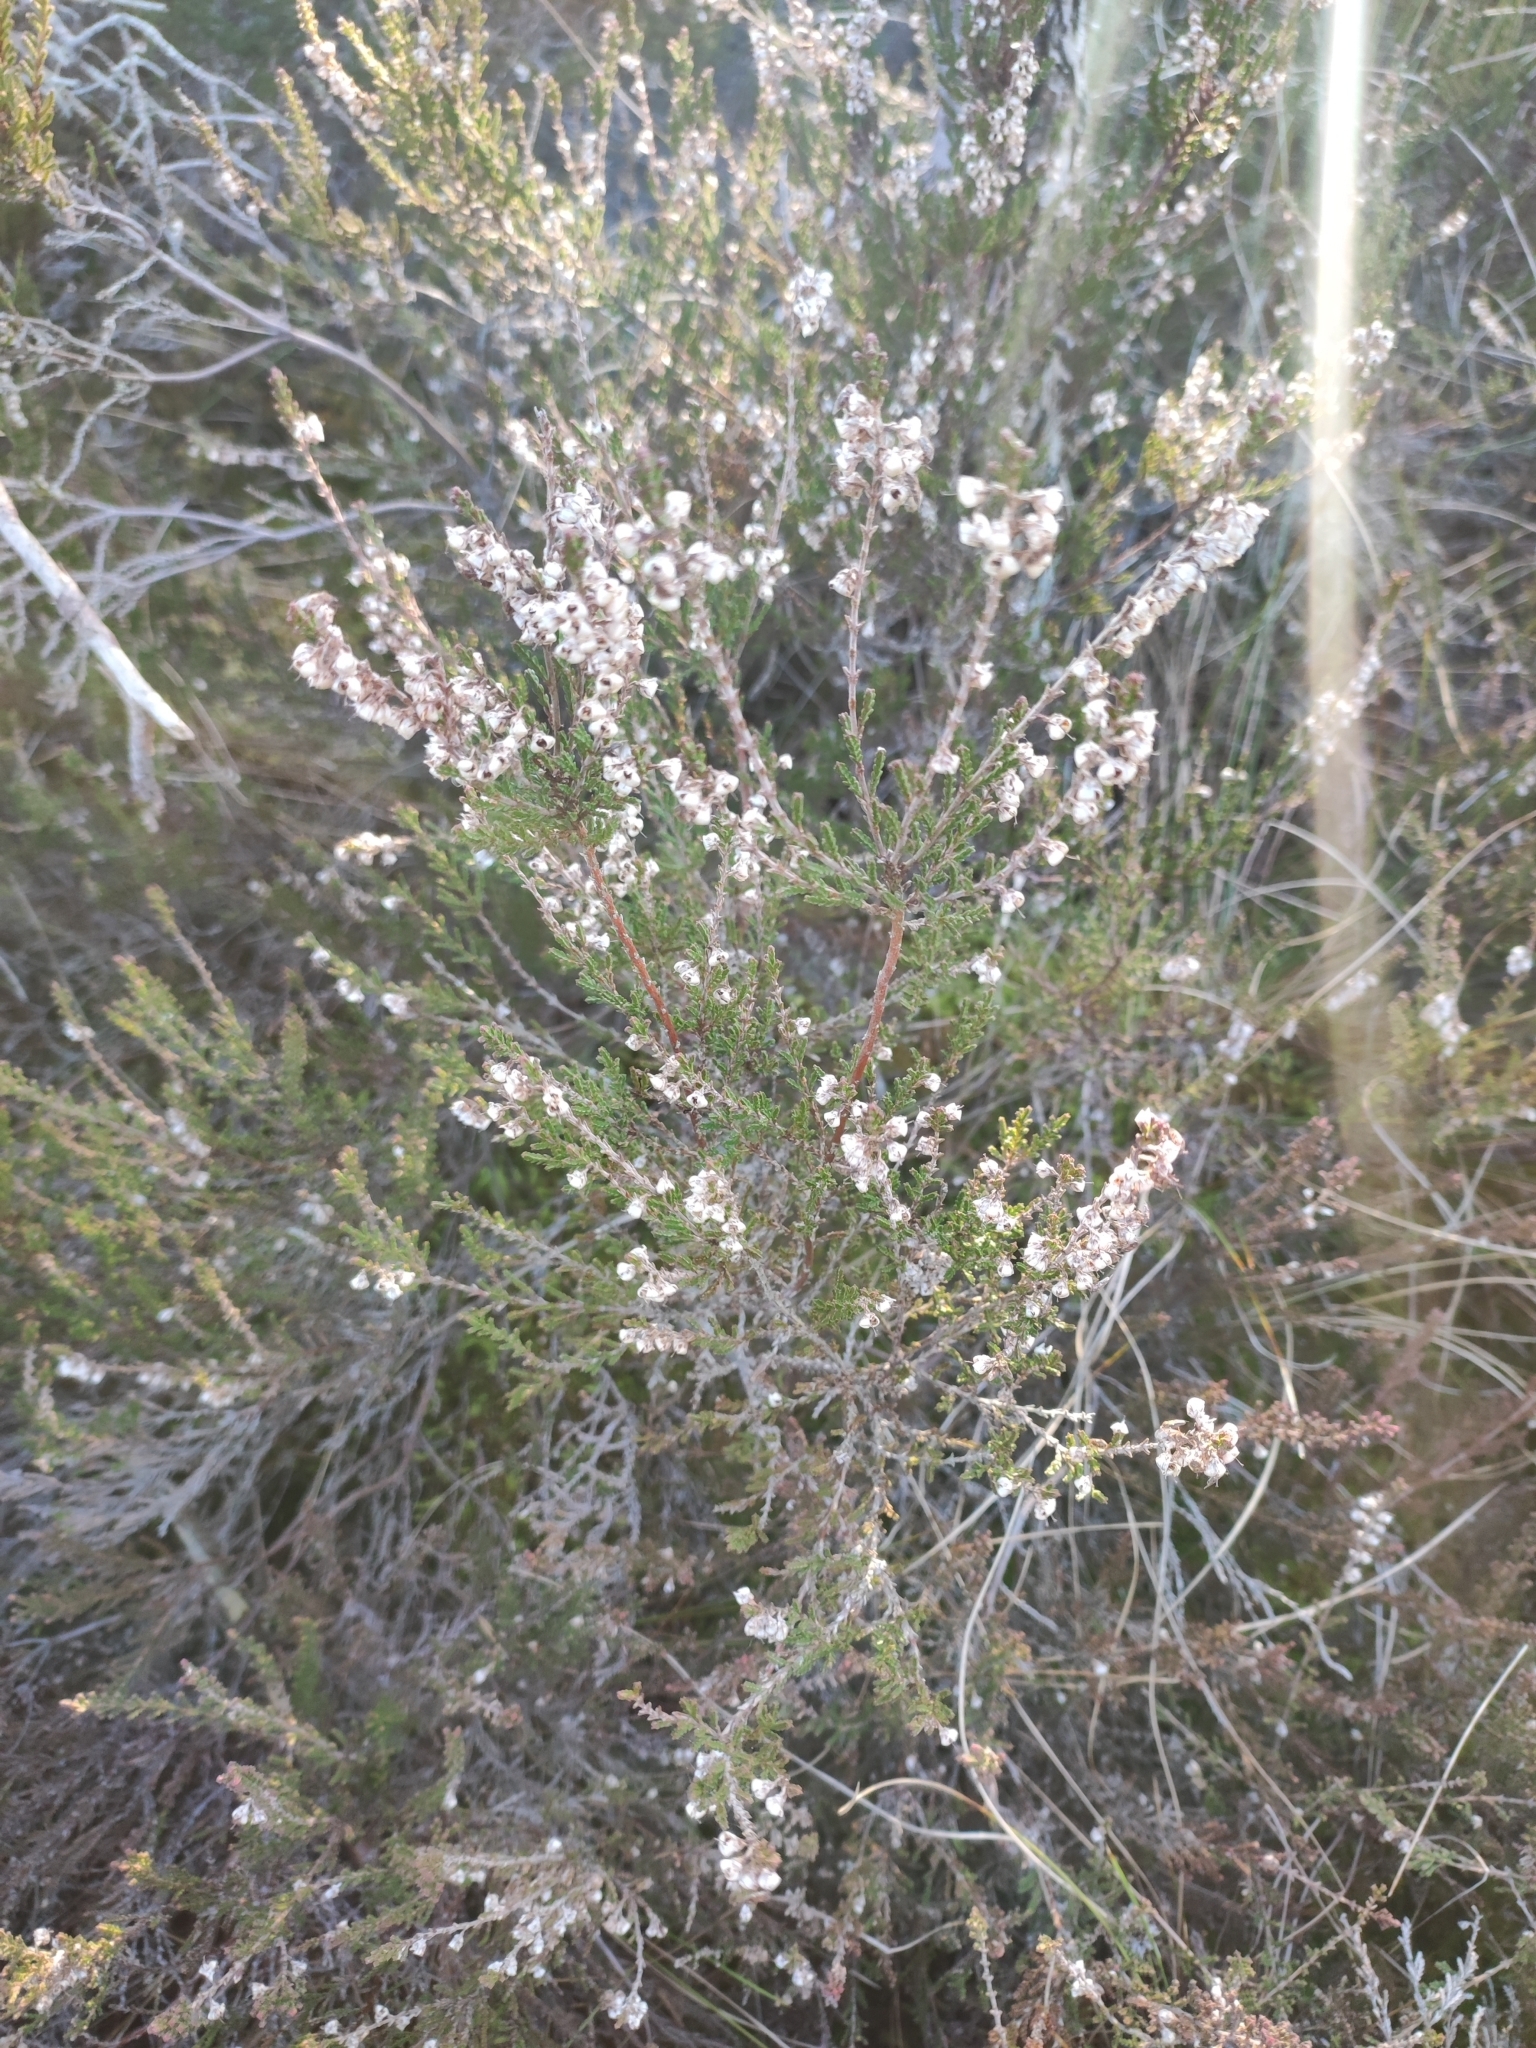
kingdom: Plantae
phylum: Tracheophyta
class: Magnoliopsida
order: Ericales
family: Ericaceae
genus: Calluna
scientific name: Calluna vulgaris
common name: Heather
